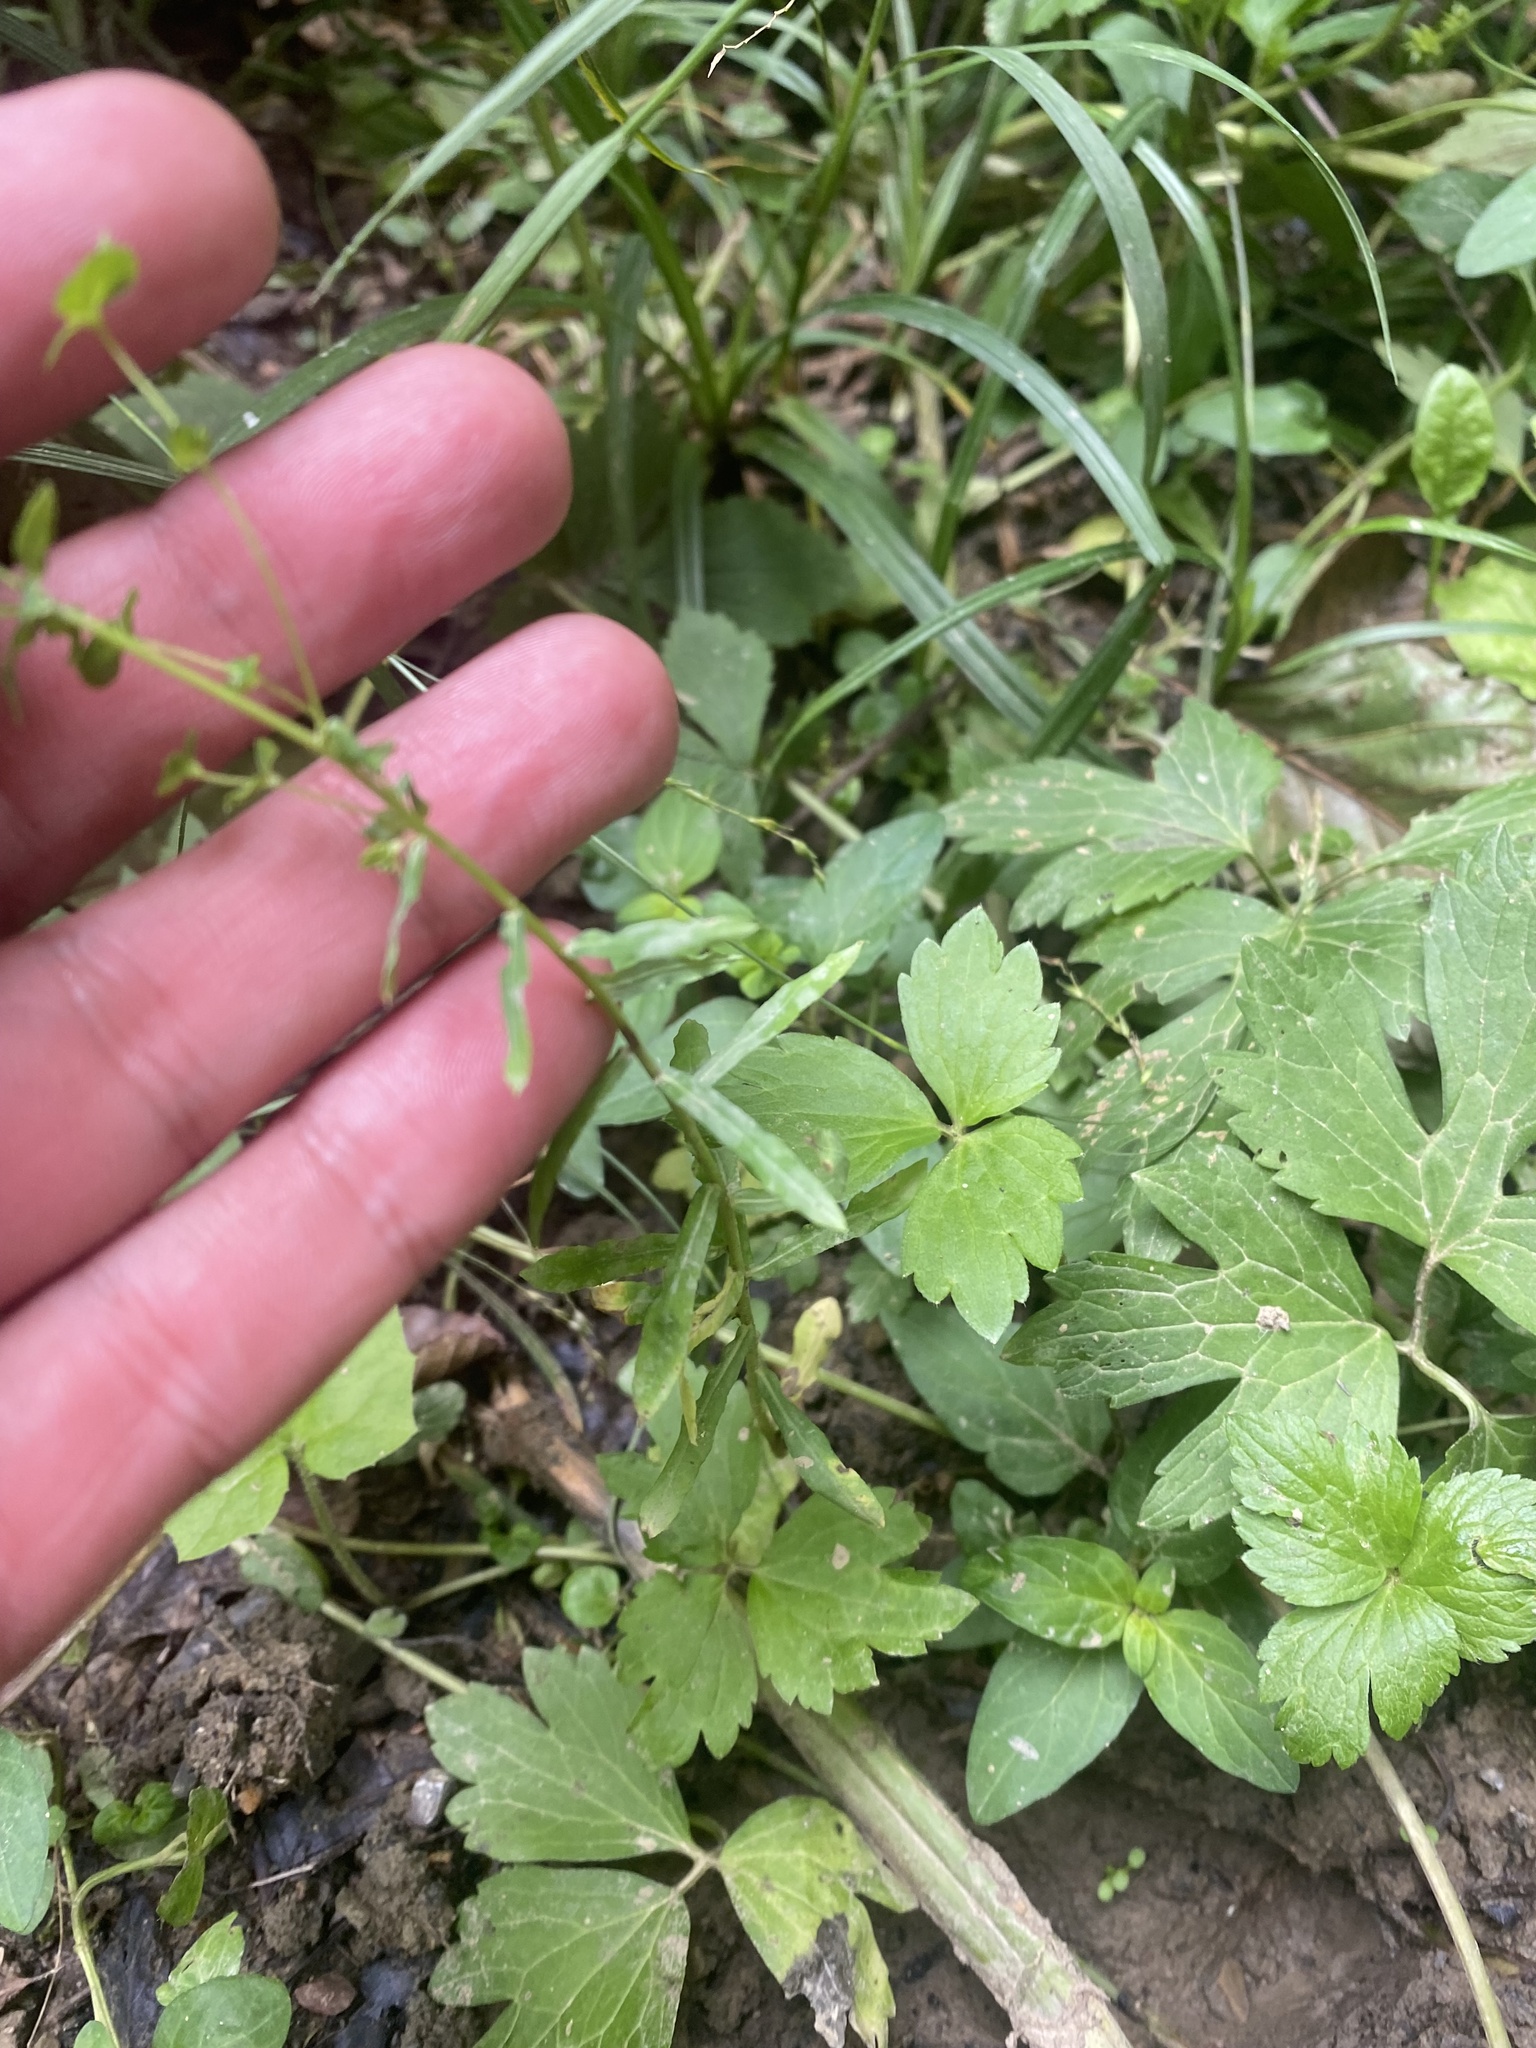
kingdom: Plantae
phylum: Tracheophyta
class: Magnoliopsida
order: Malpighiales
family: Euphorbiaceae
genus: Euphorbia
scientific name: Euphorbia stricta
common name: Upright spurge
